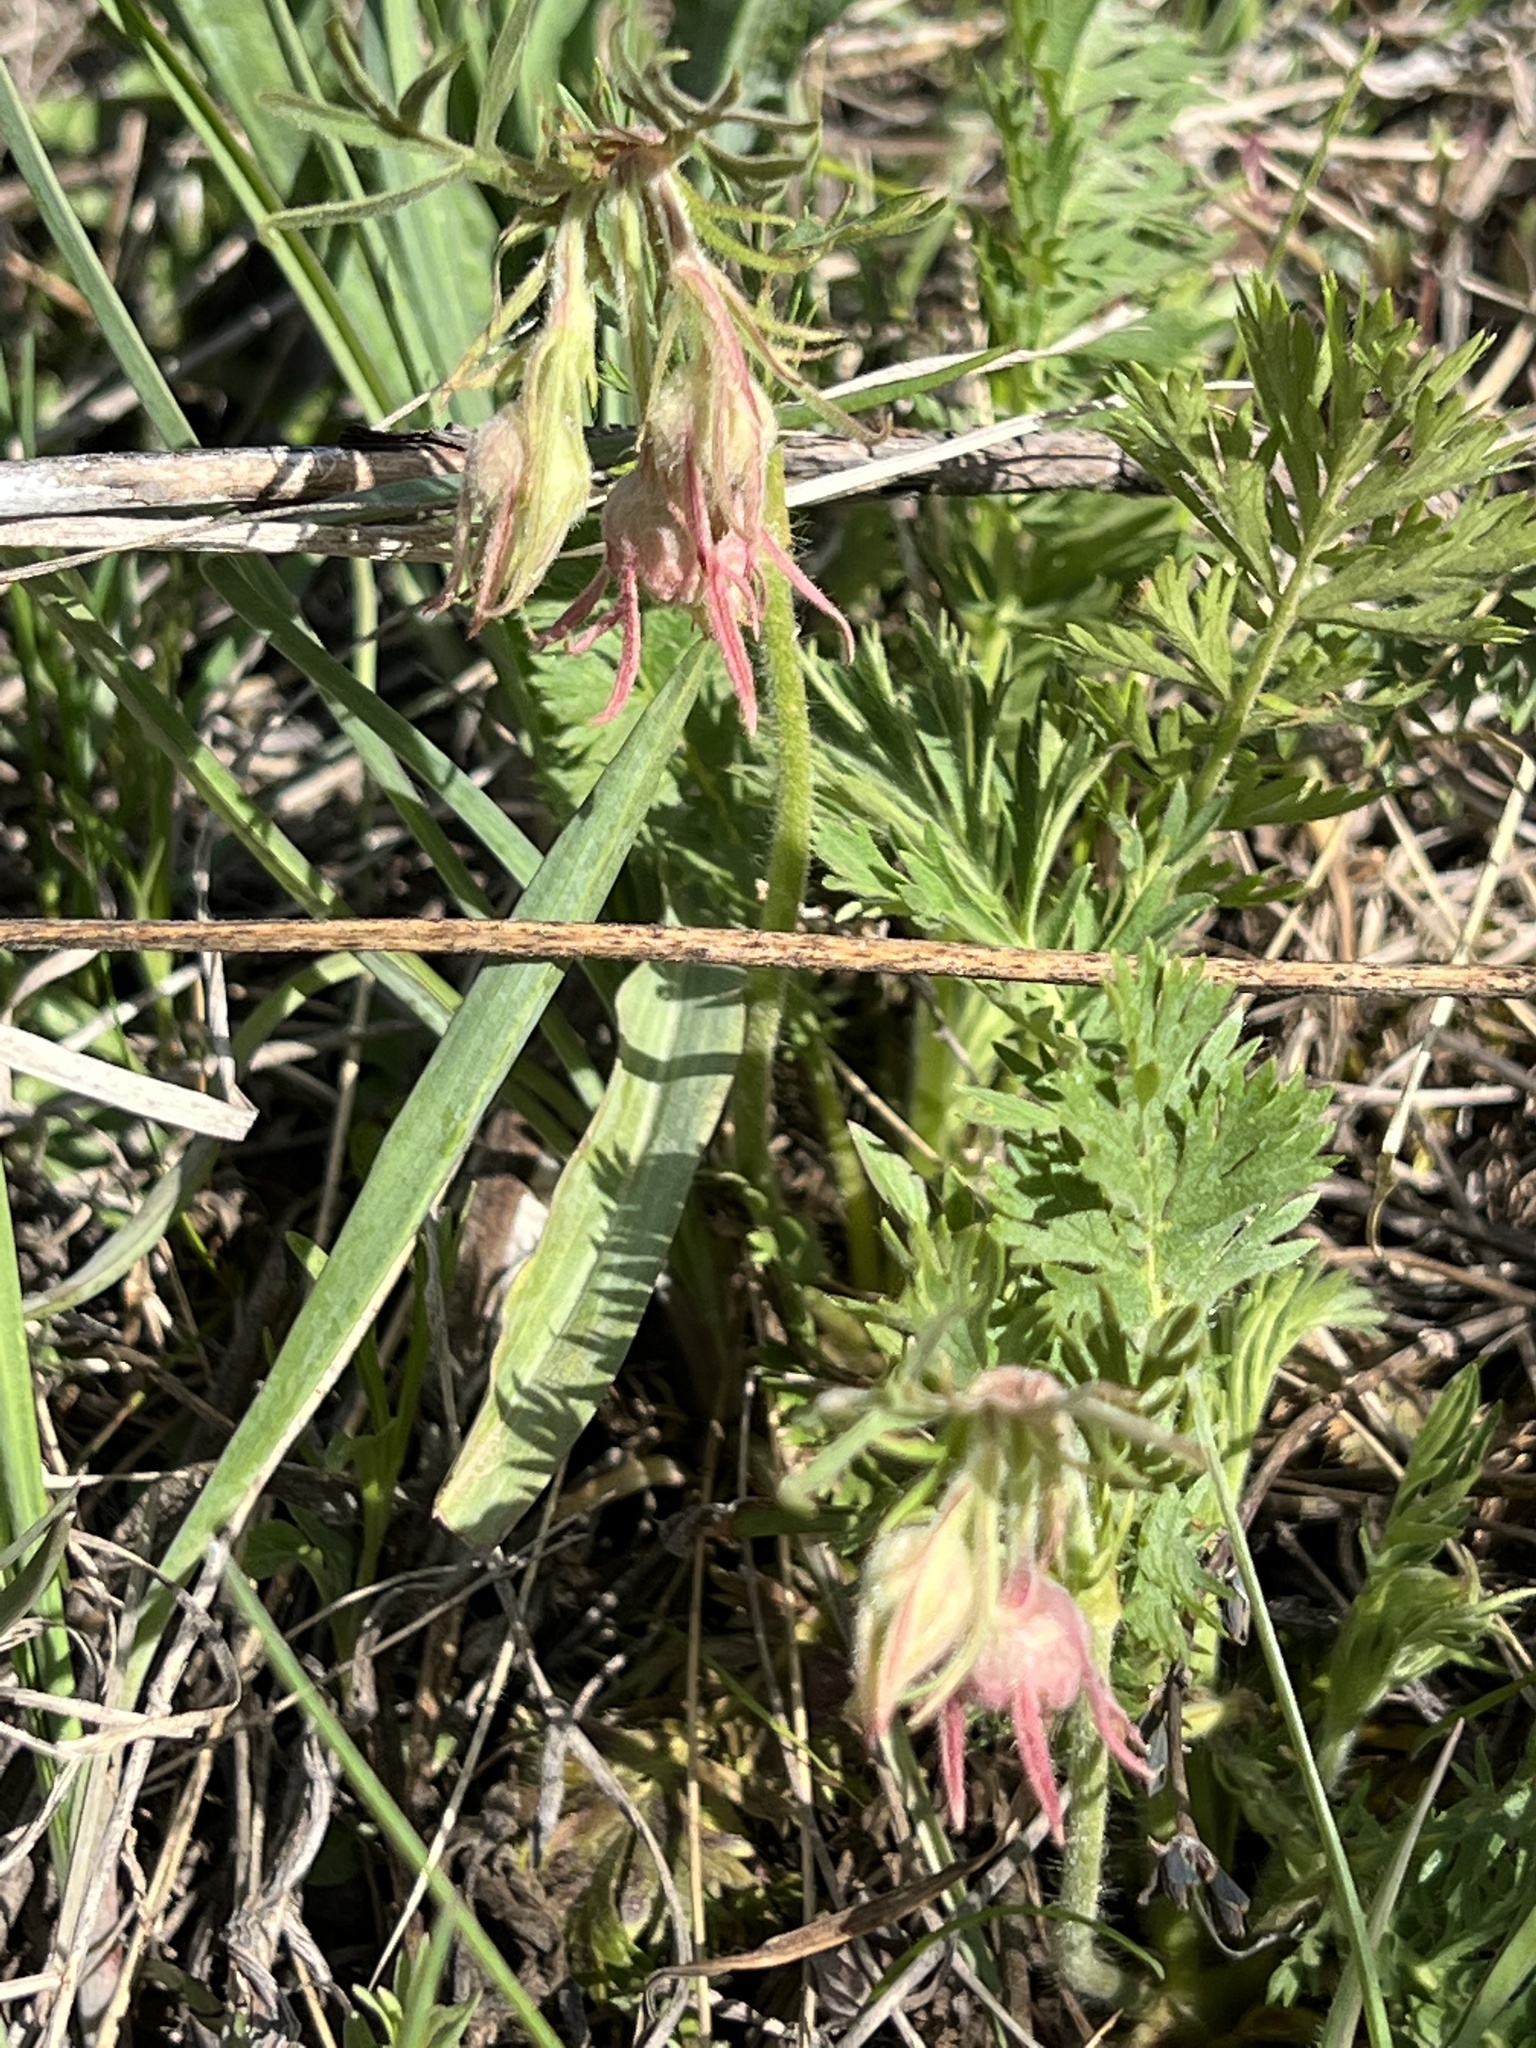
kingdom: Plantae
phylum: Tracheophyta
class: Magnoliopsida
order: Rosales
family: Rosaceae
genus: Geum
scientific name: Geum triflorum
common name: Old man's whiskers
